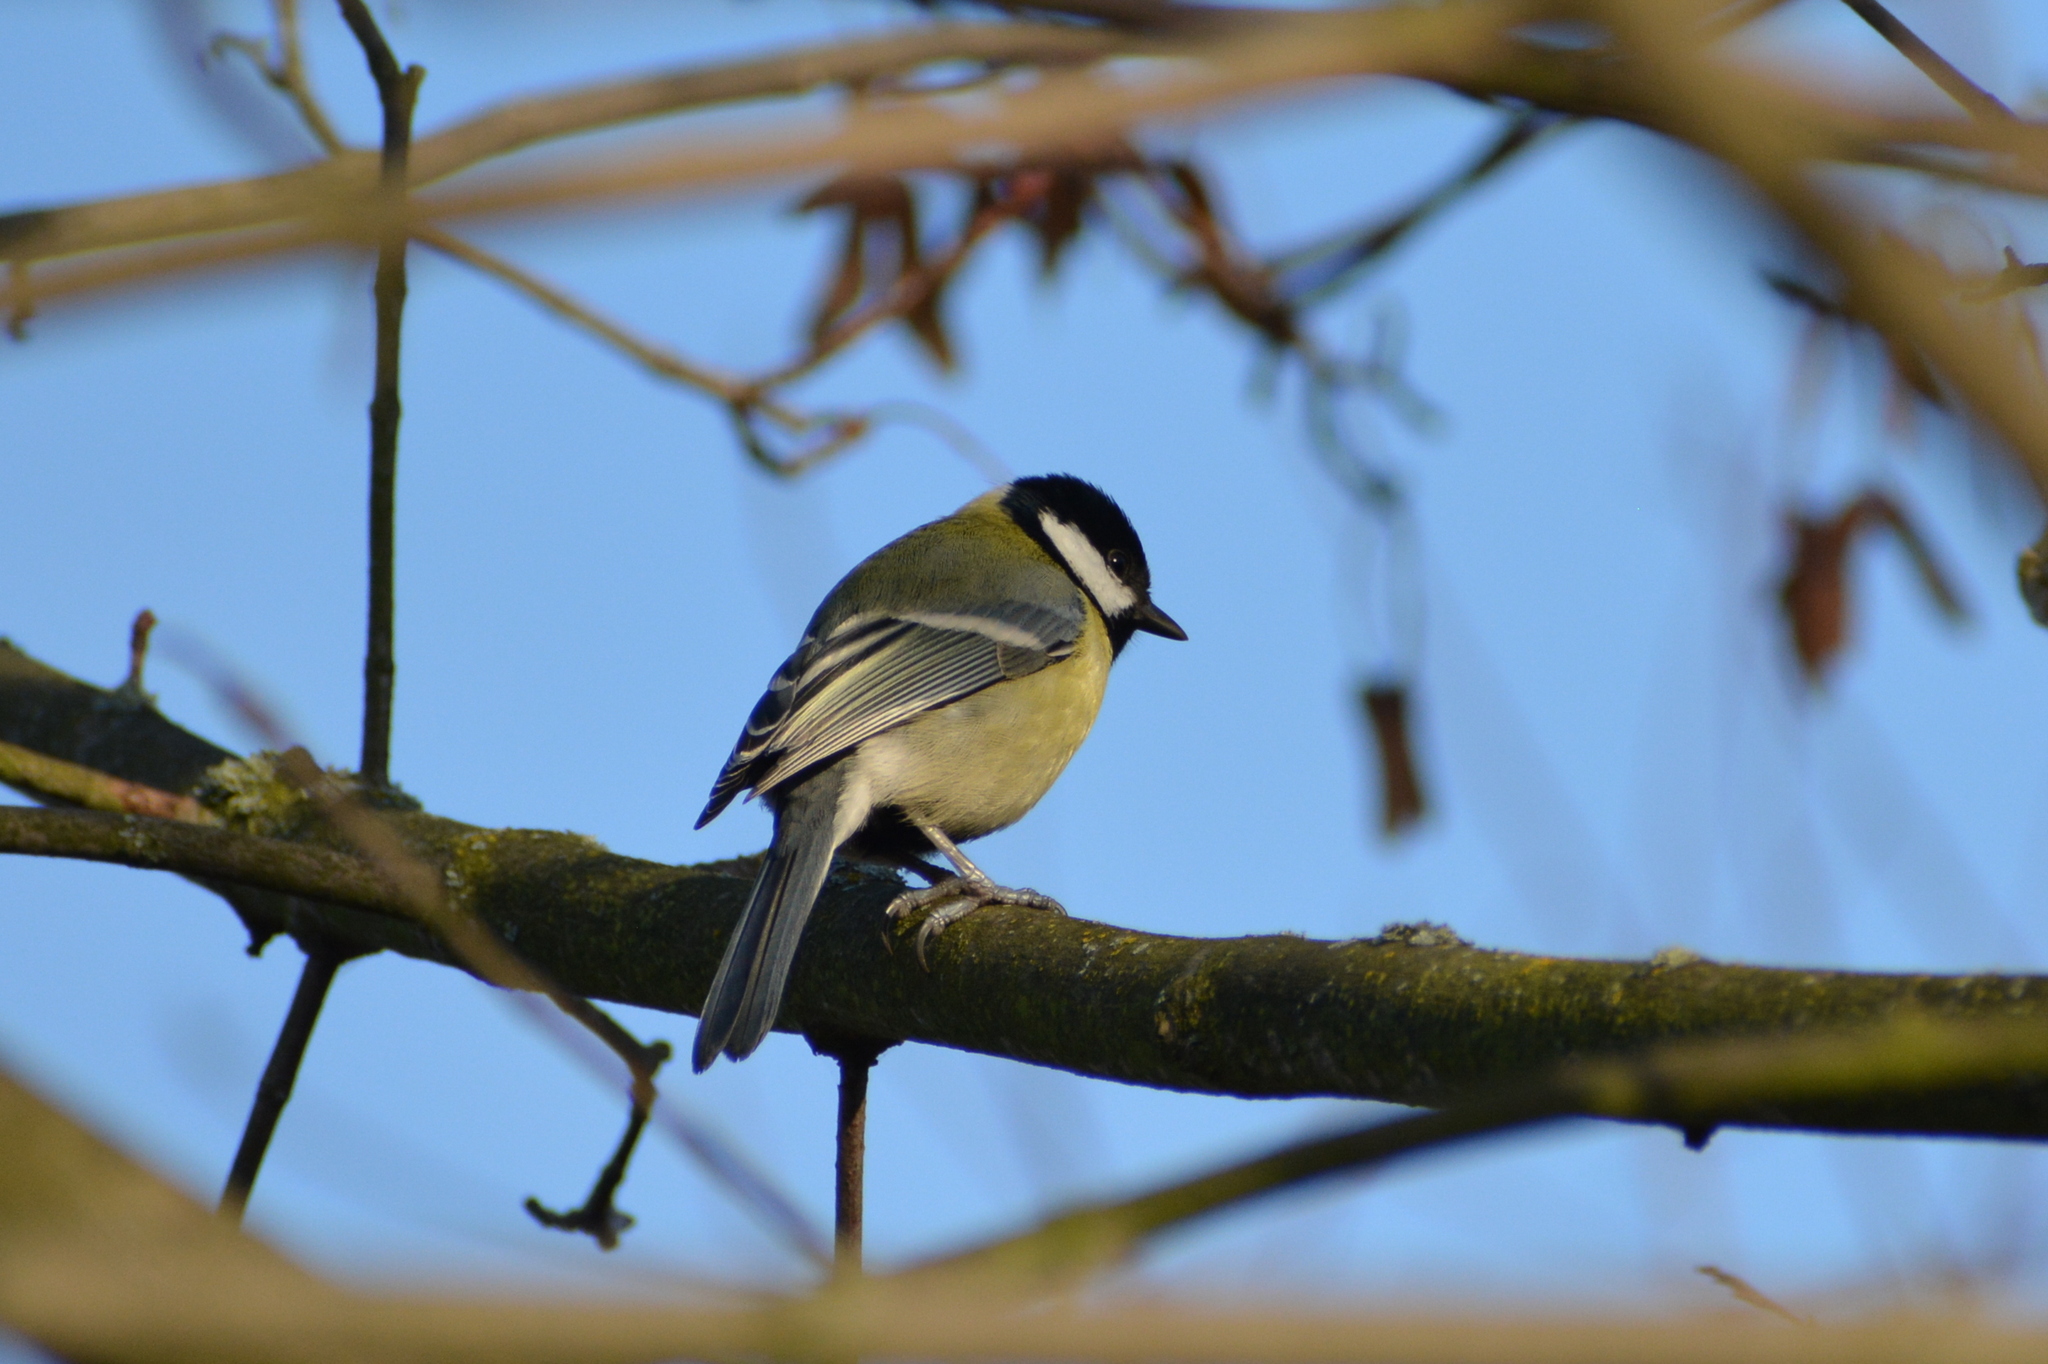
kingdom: Animalia
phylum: Chordata
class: Aves
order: Passeriformes
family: Paridae
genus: Parus
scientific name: Parus major
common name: Great tit
